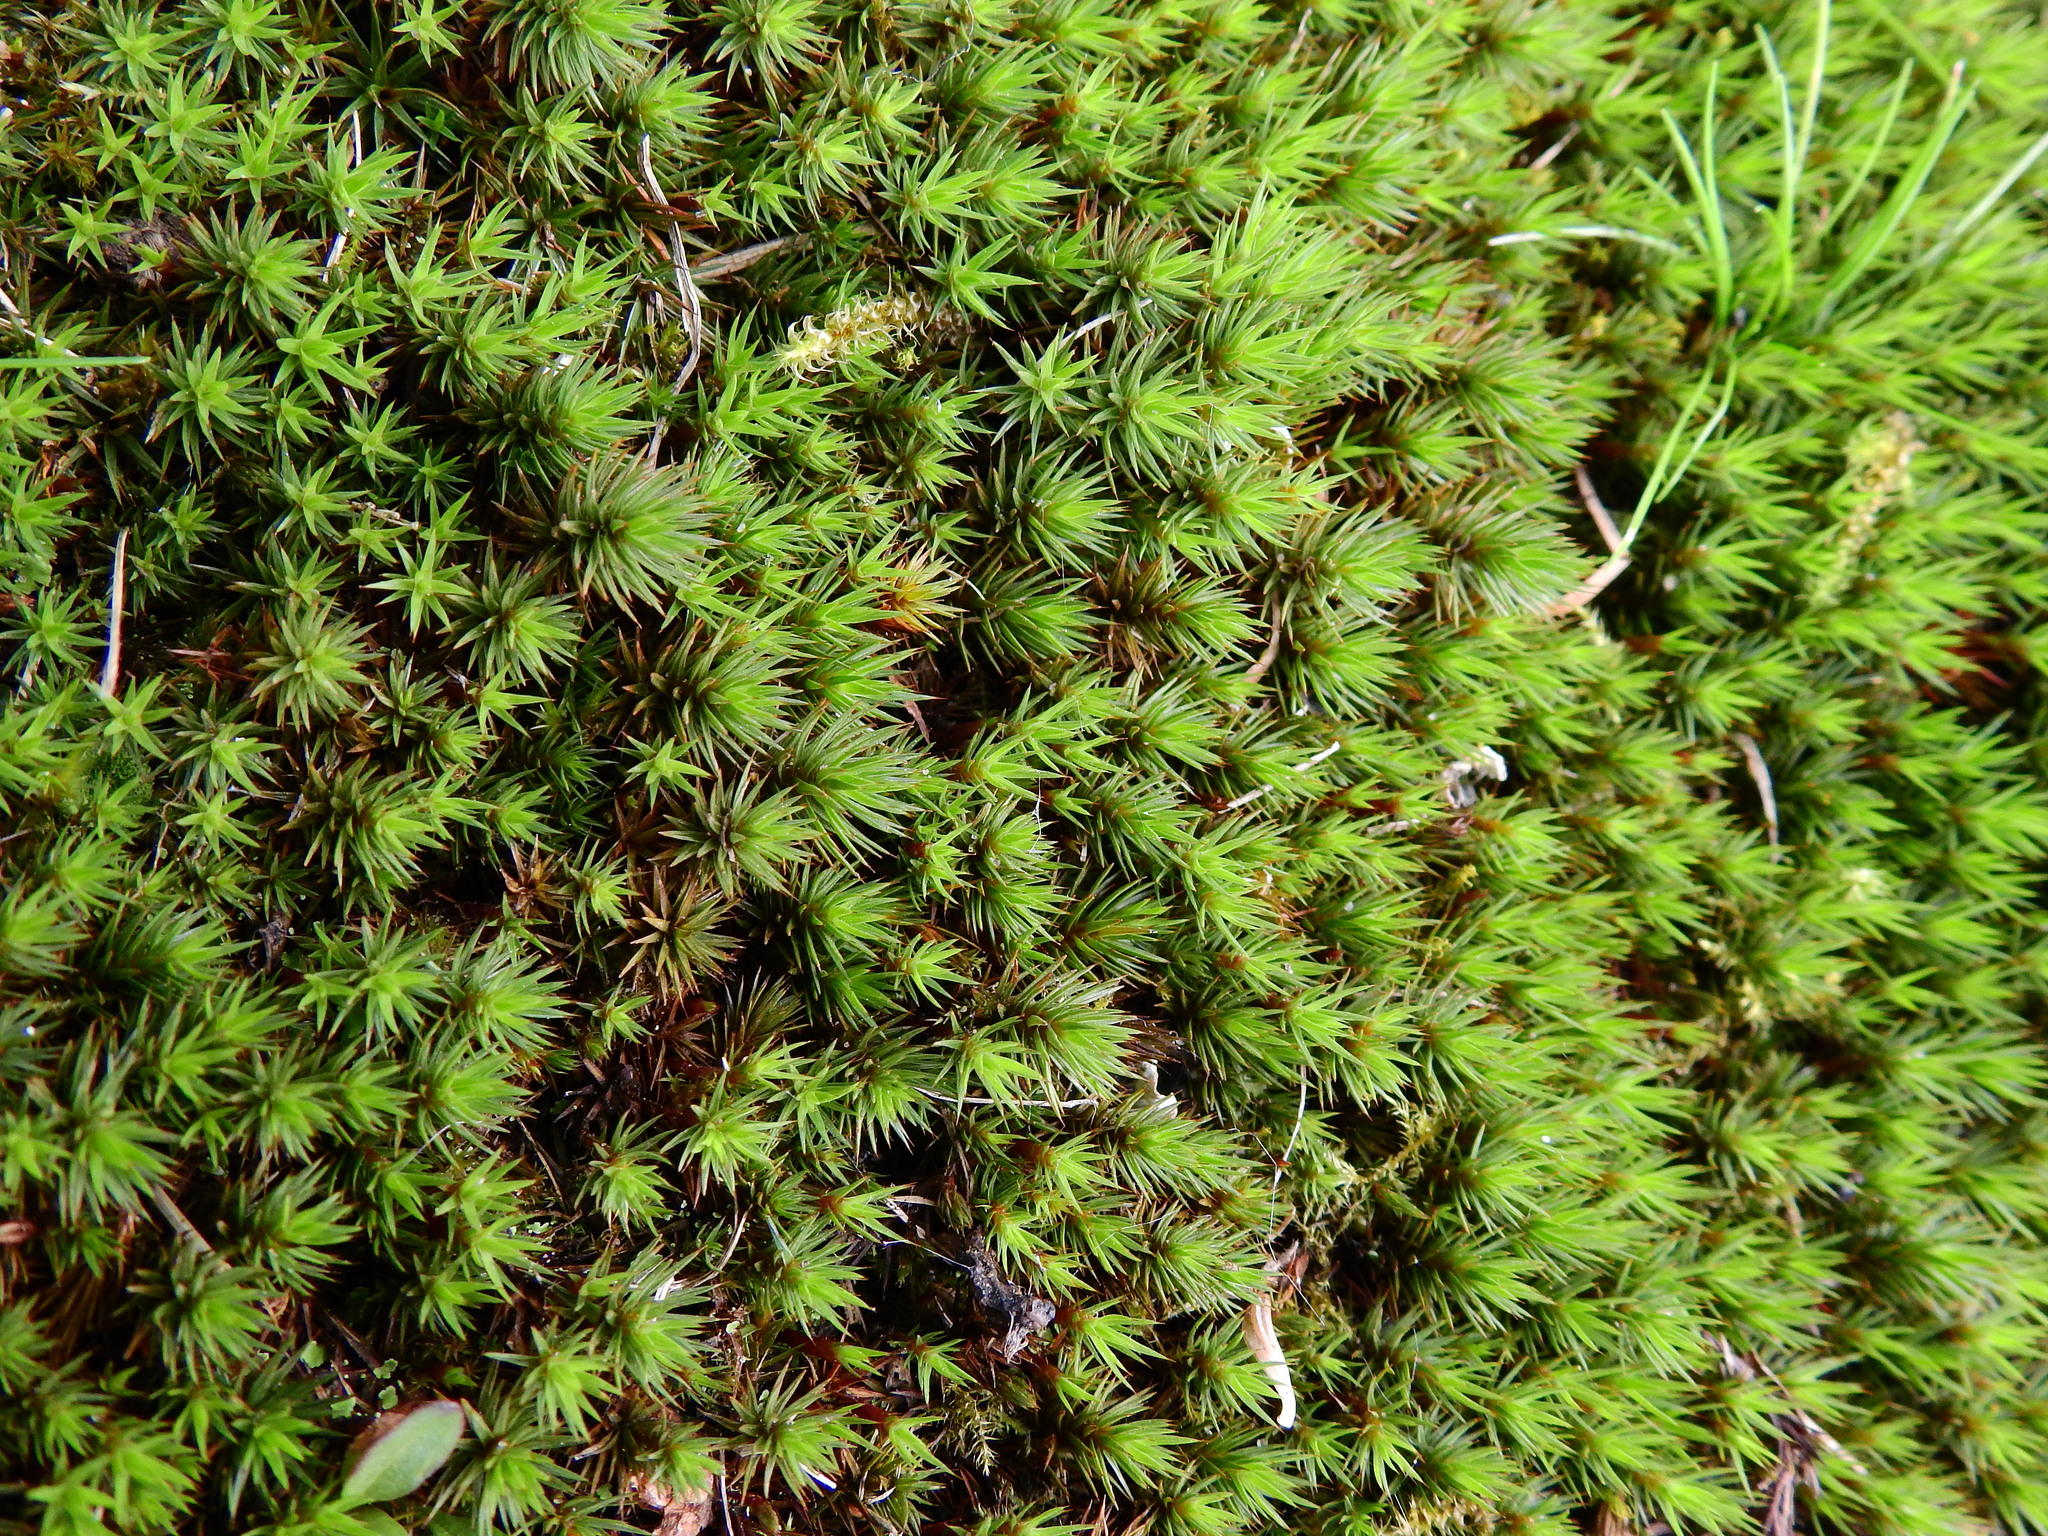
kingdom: Plantae
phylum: Bryophyta
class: Polytrichopsida
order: Polytrichales
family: Polytrichaceae
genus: Polytrichum
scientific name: Polytrichum juniperinum
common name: Juniper haircap moss
